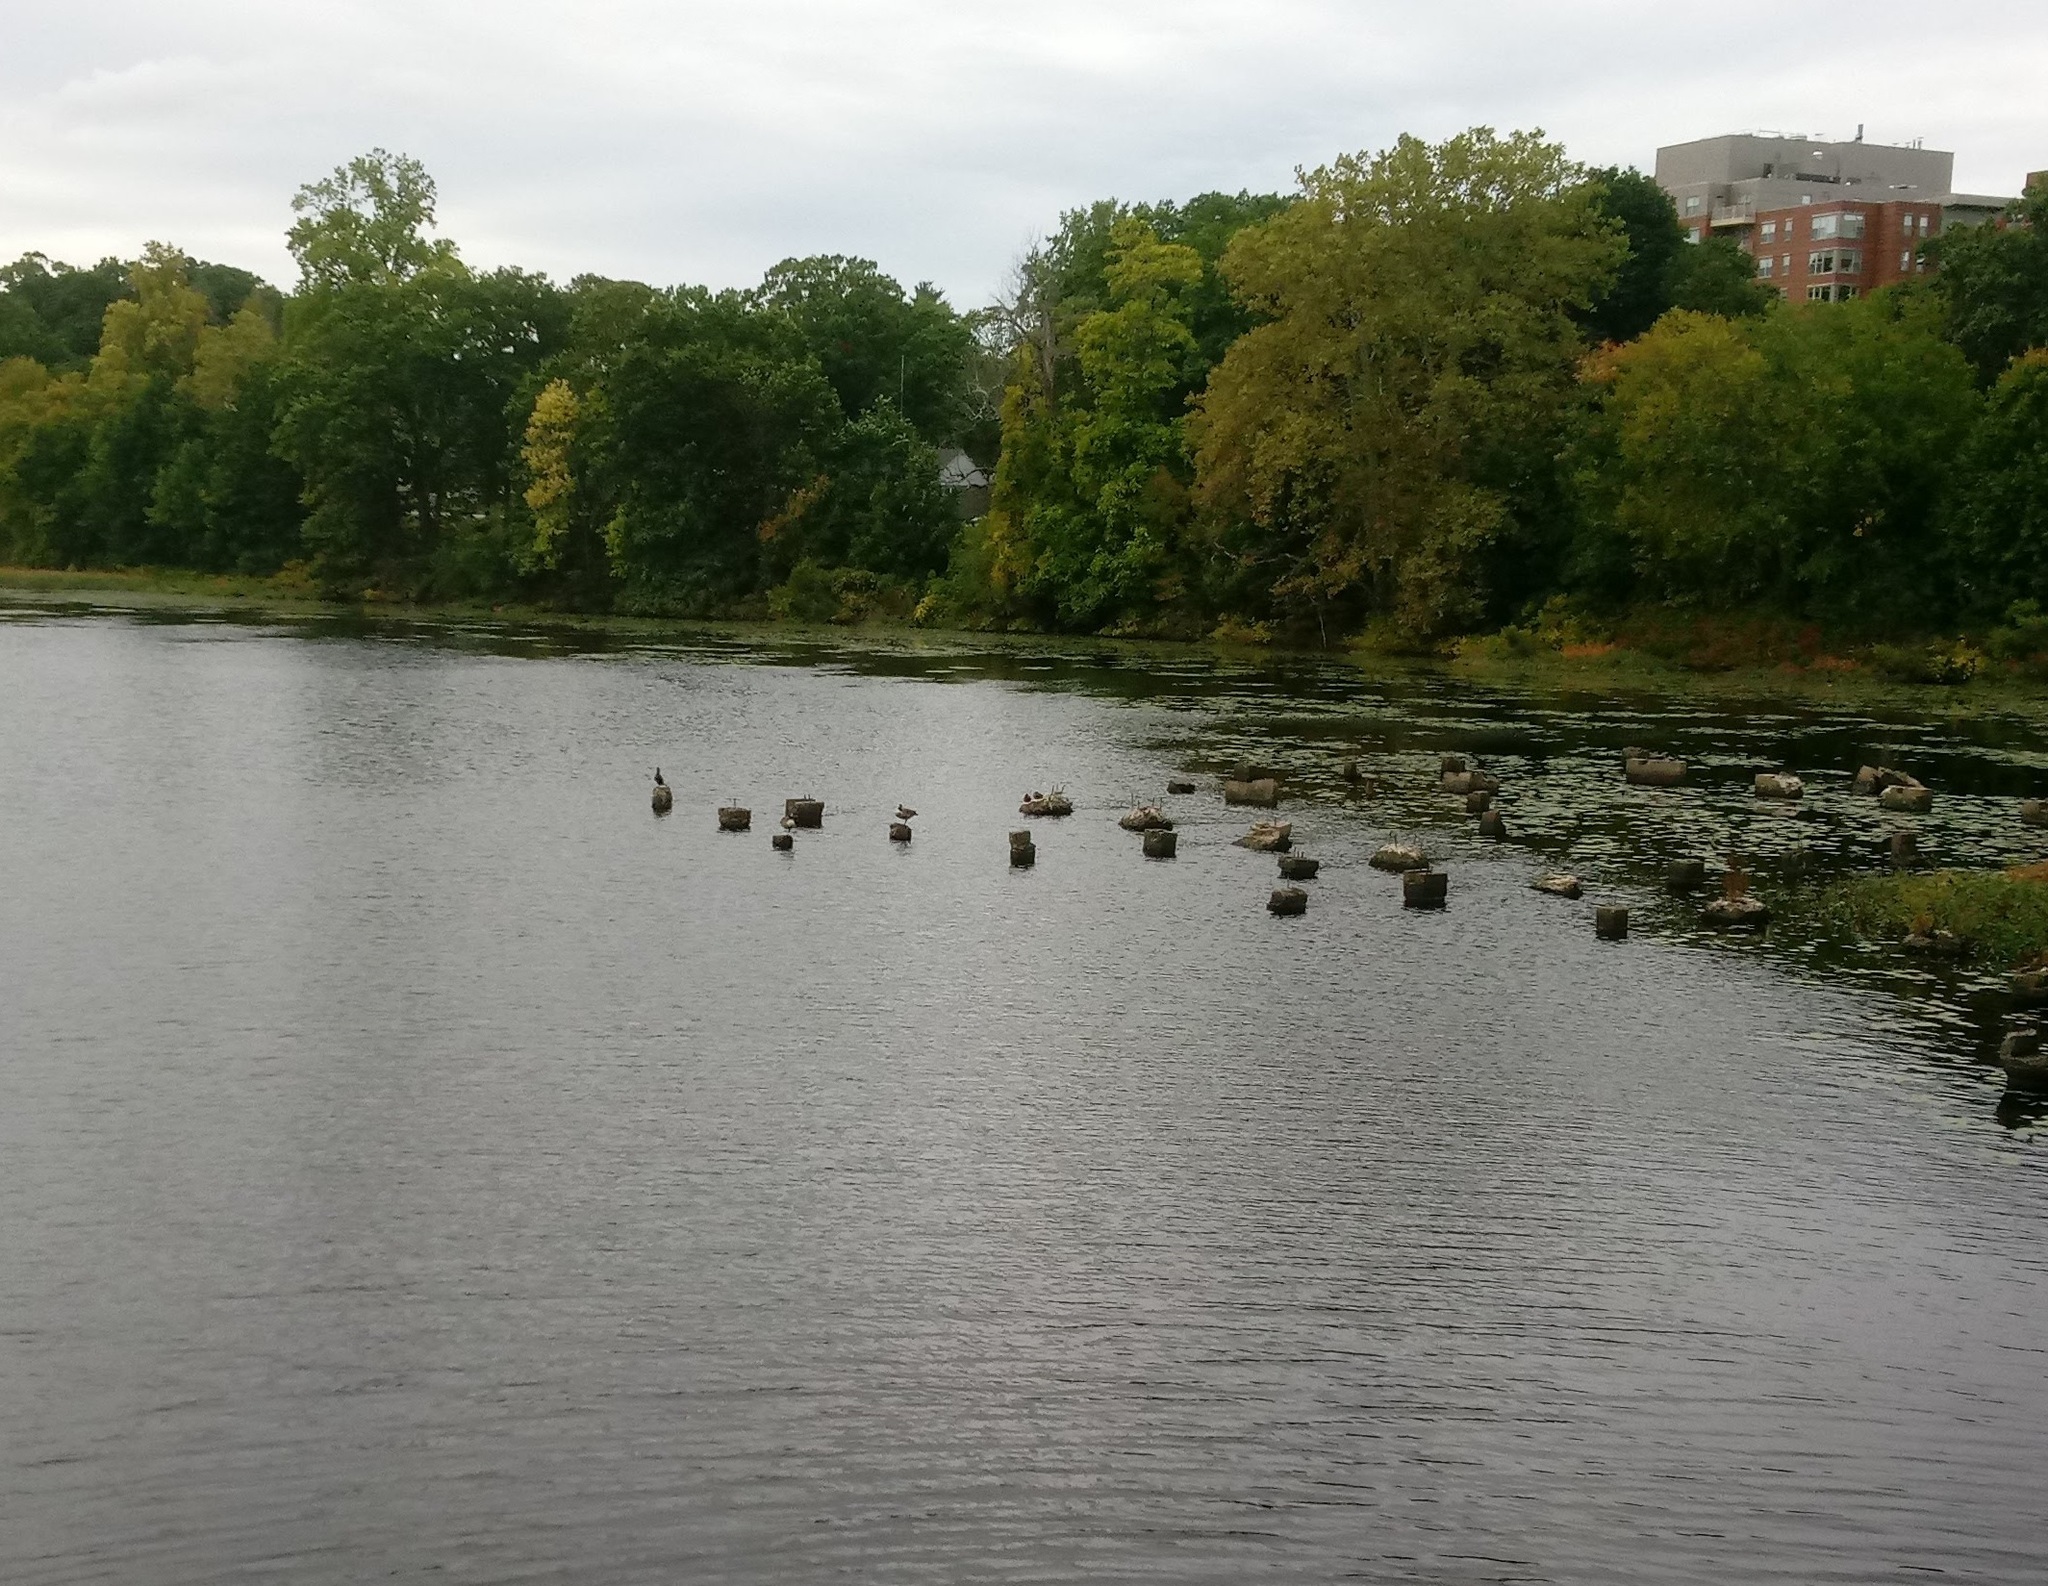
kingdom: Animalia
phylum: Chordata
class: Aves
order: Anseriformes
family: Anatidae
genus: Branta
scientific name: Branta canadensis
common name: Canada goose
